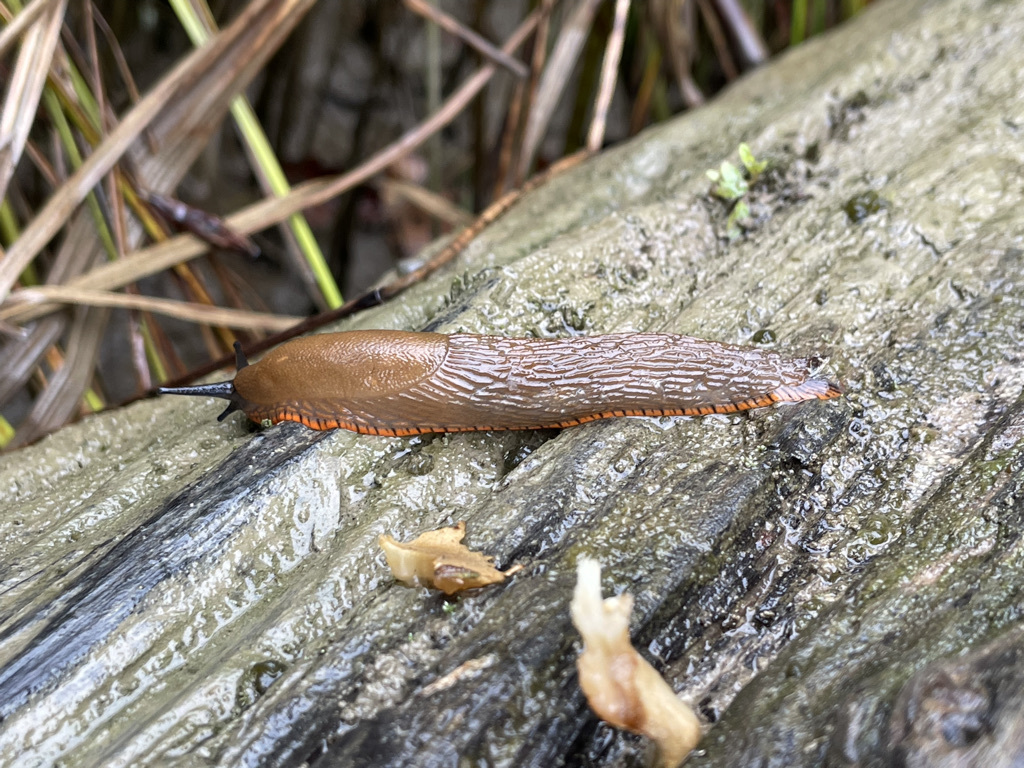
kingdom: Animalia
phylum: Mollusca
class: Gastropoda
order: Stylommatophora
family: Arionidae
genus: Arion
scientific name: Arion rufus
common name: Chocolate arion
